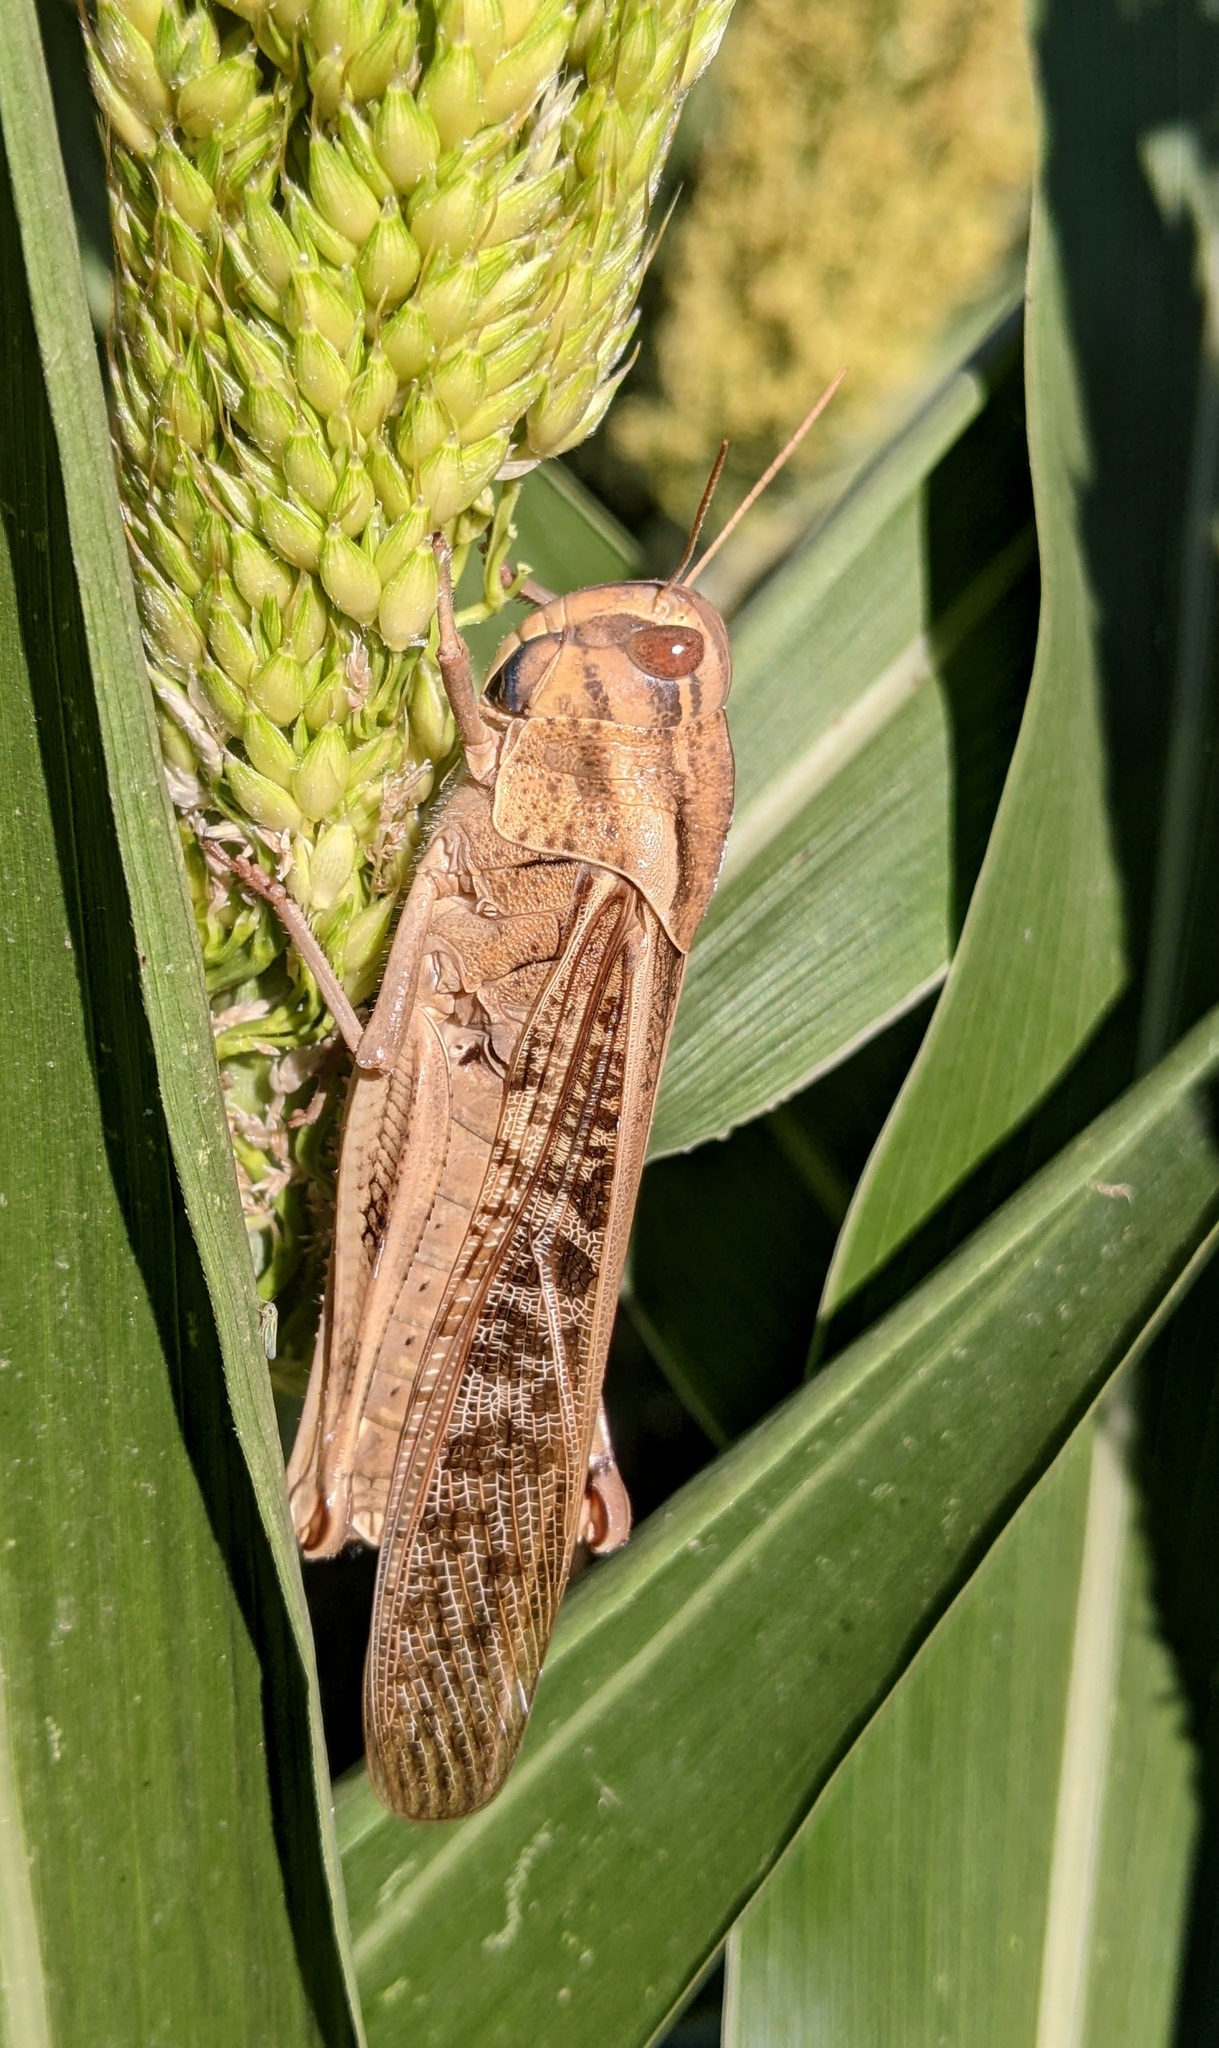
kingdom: Animalia
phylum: Arthropoda
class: Insecta
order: Orthoptera
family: Acrididae
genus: Locusta
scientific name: Locusta migratoria
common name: Migratory locust
